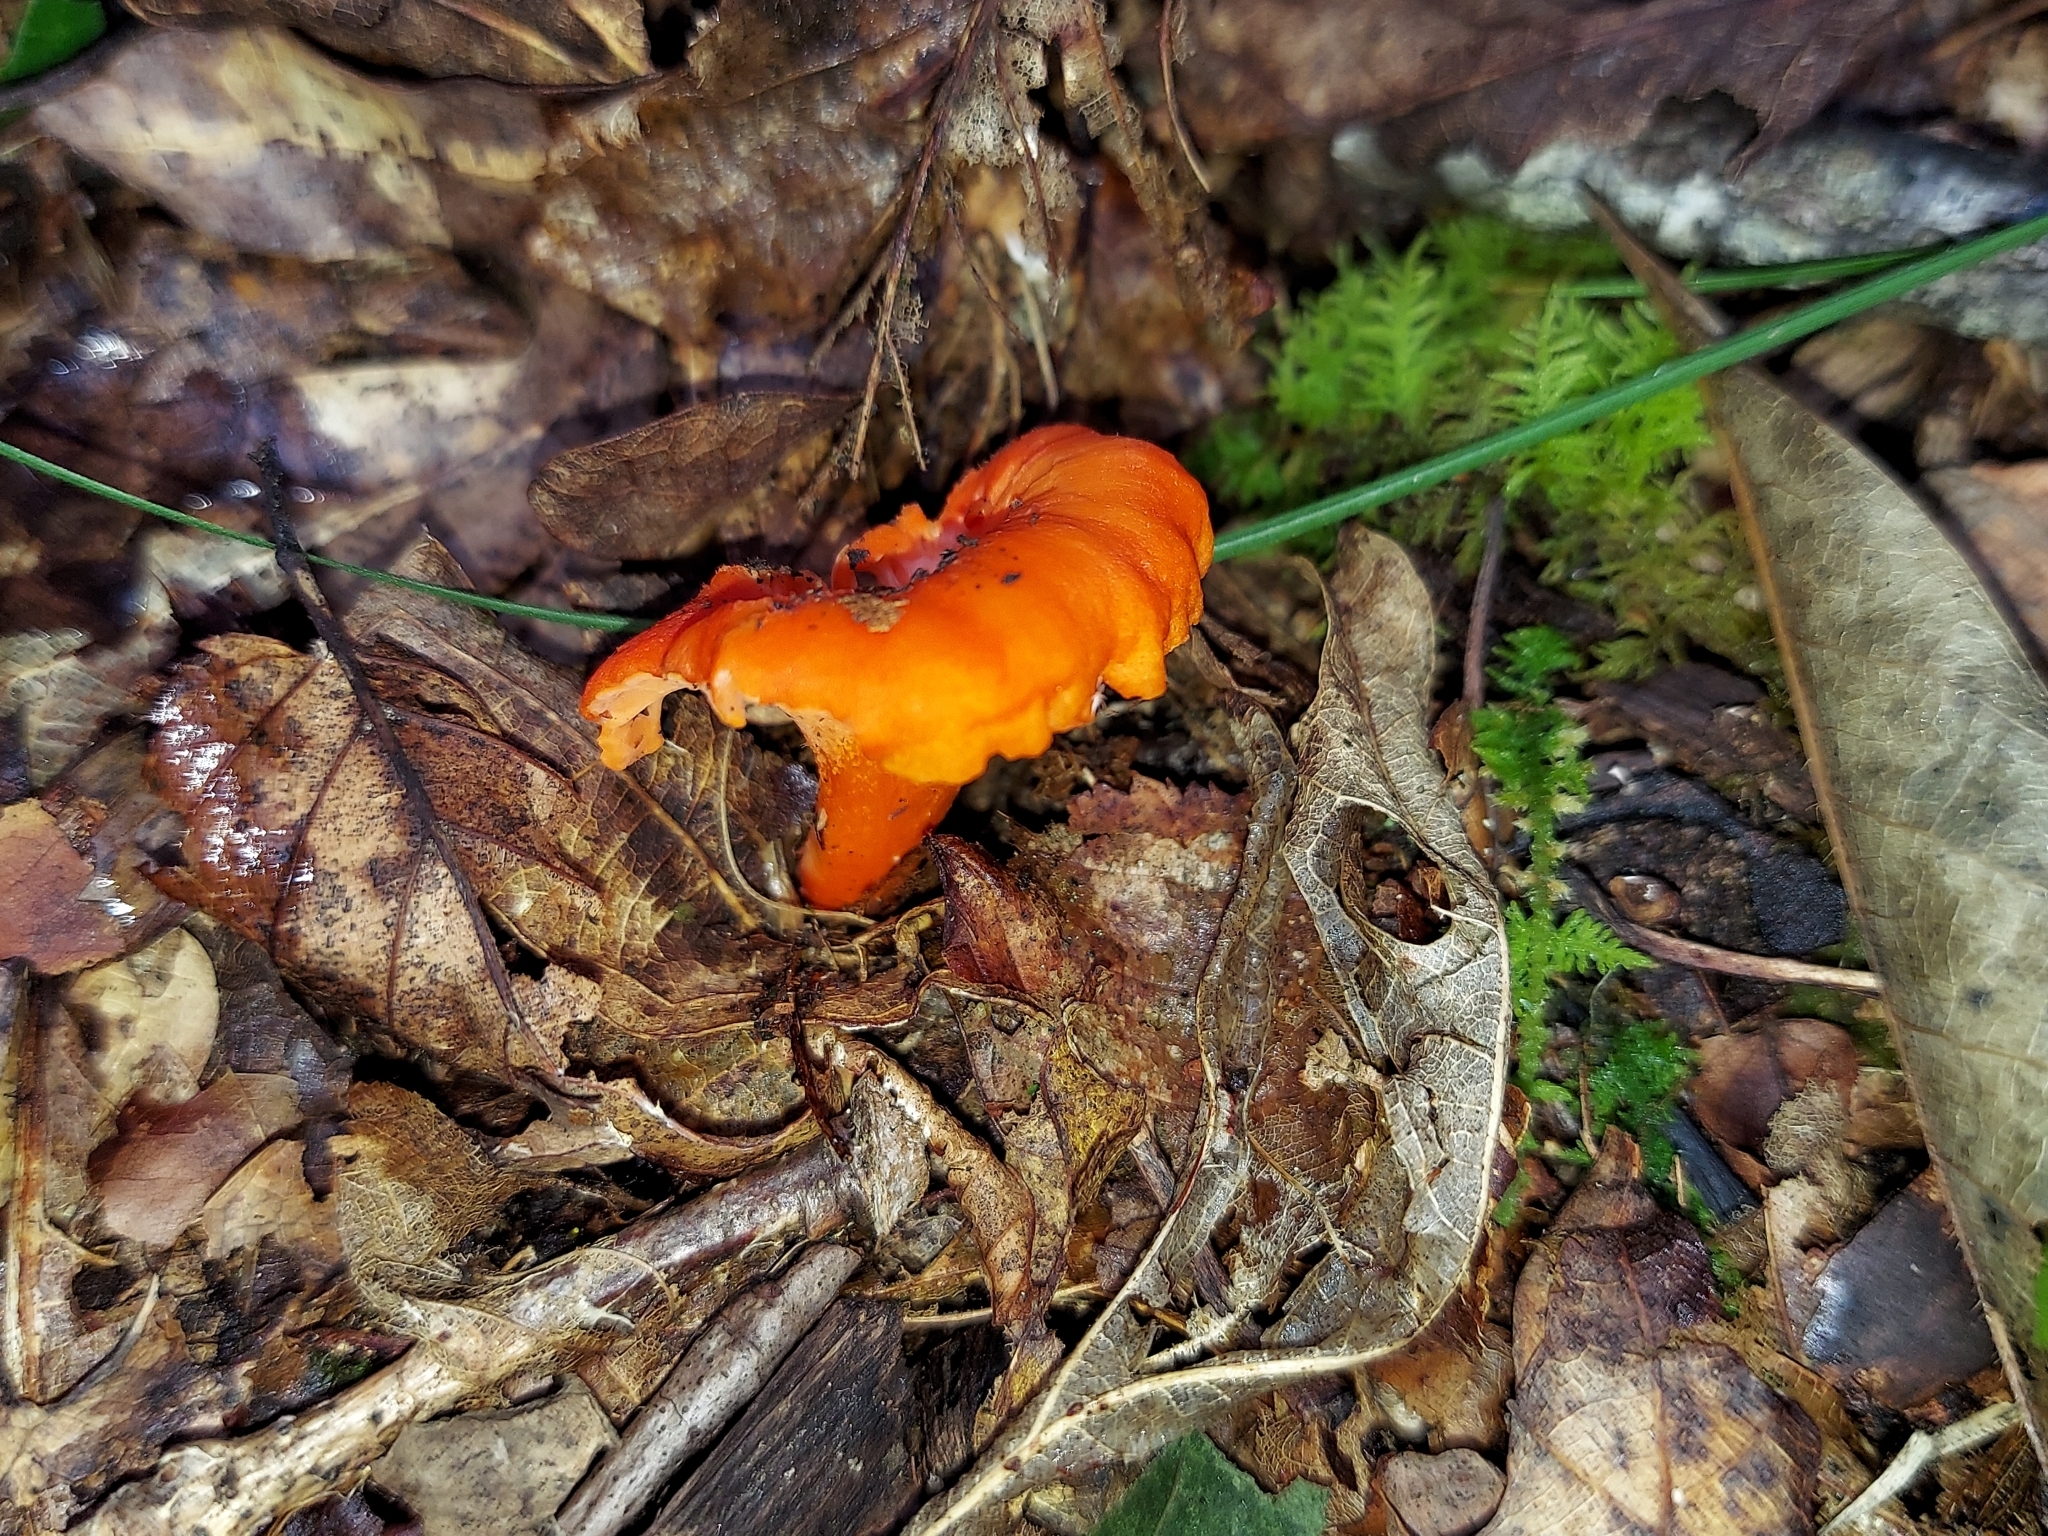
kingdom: Fungi
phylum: Basidiomycota
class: Agaricomycetes
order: Cantharellales
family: Hydnaceae
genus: Cantharellus
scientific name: Cantharellus cinnabarinus
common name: Cinnabar chanterelle
